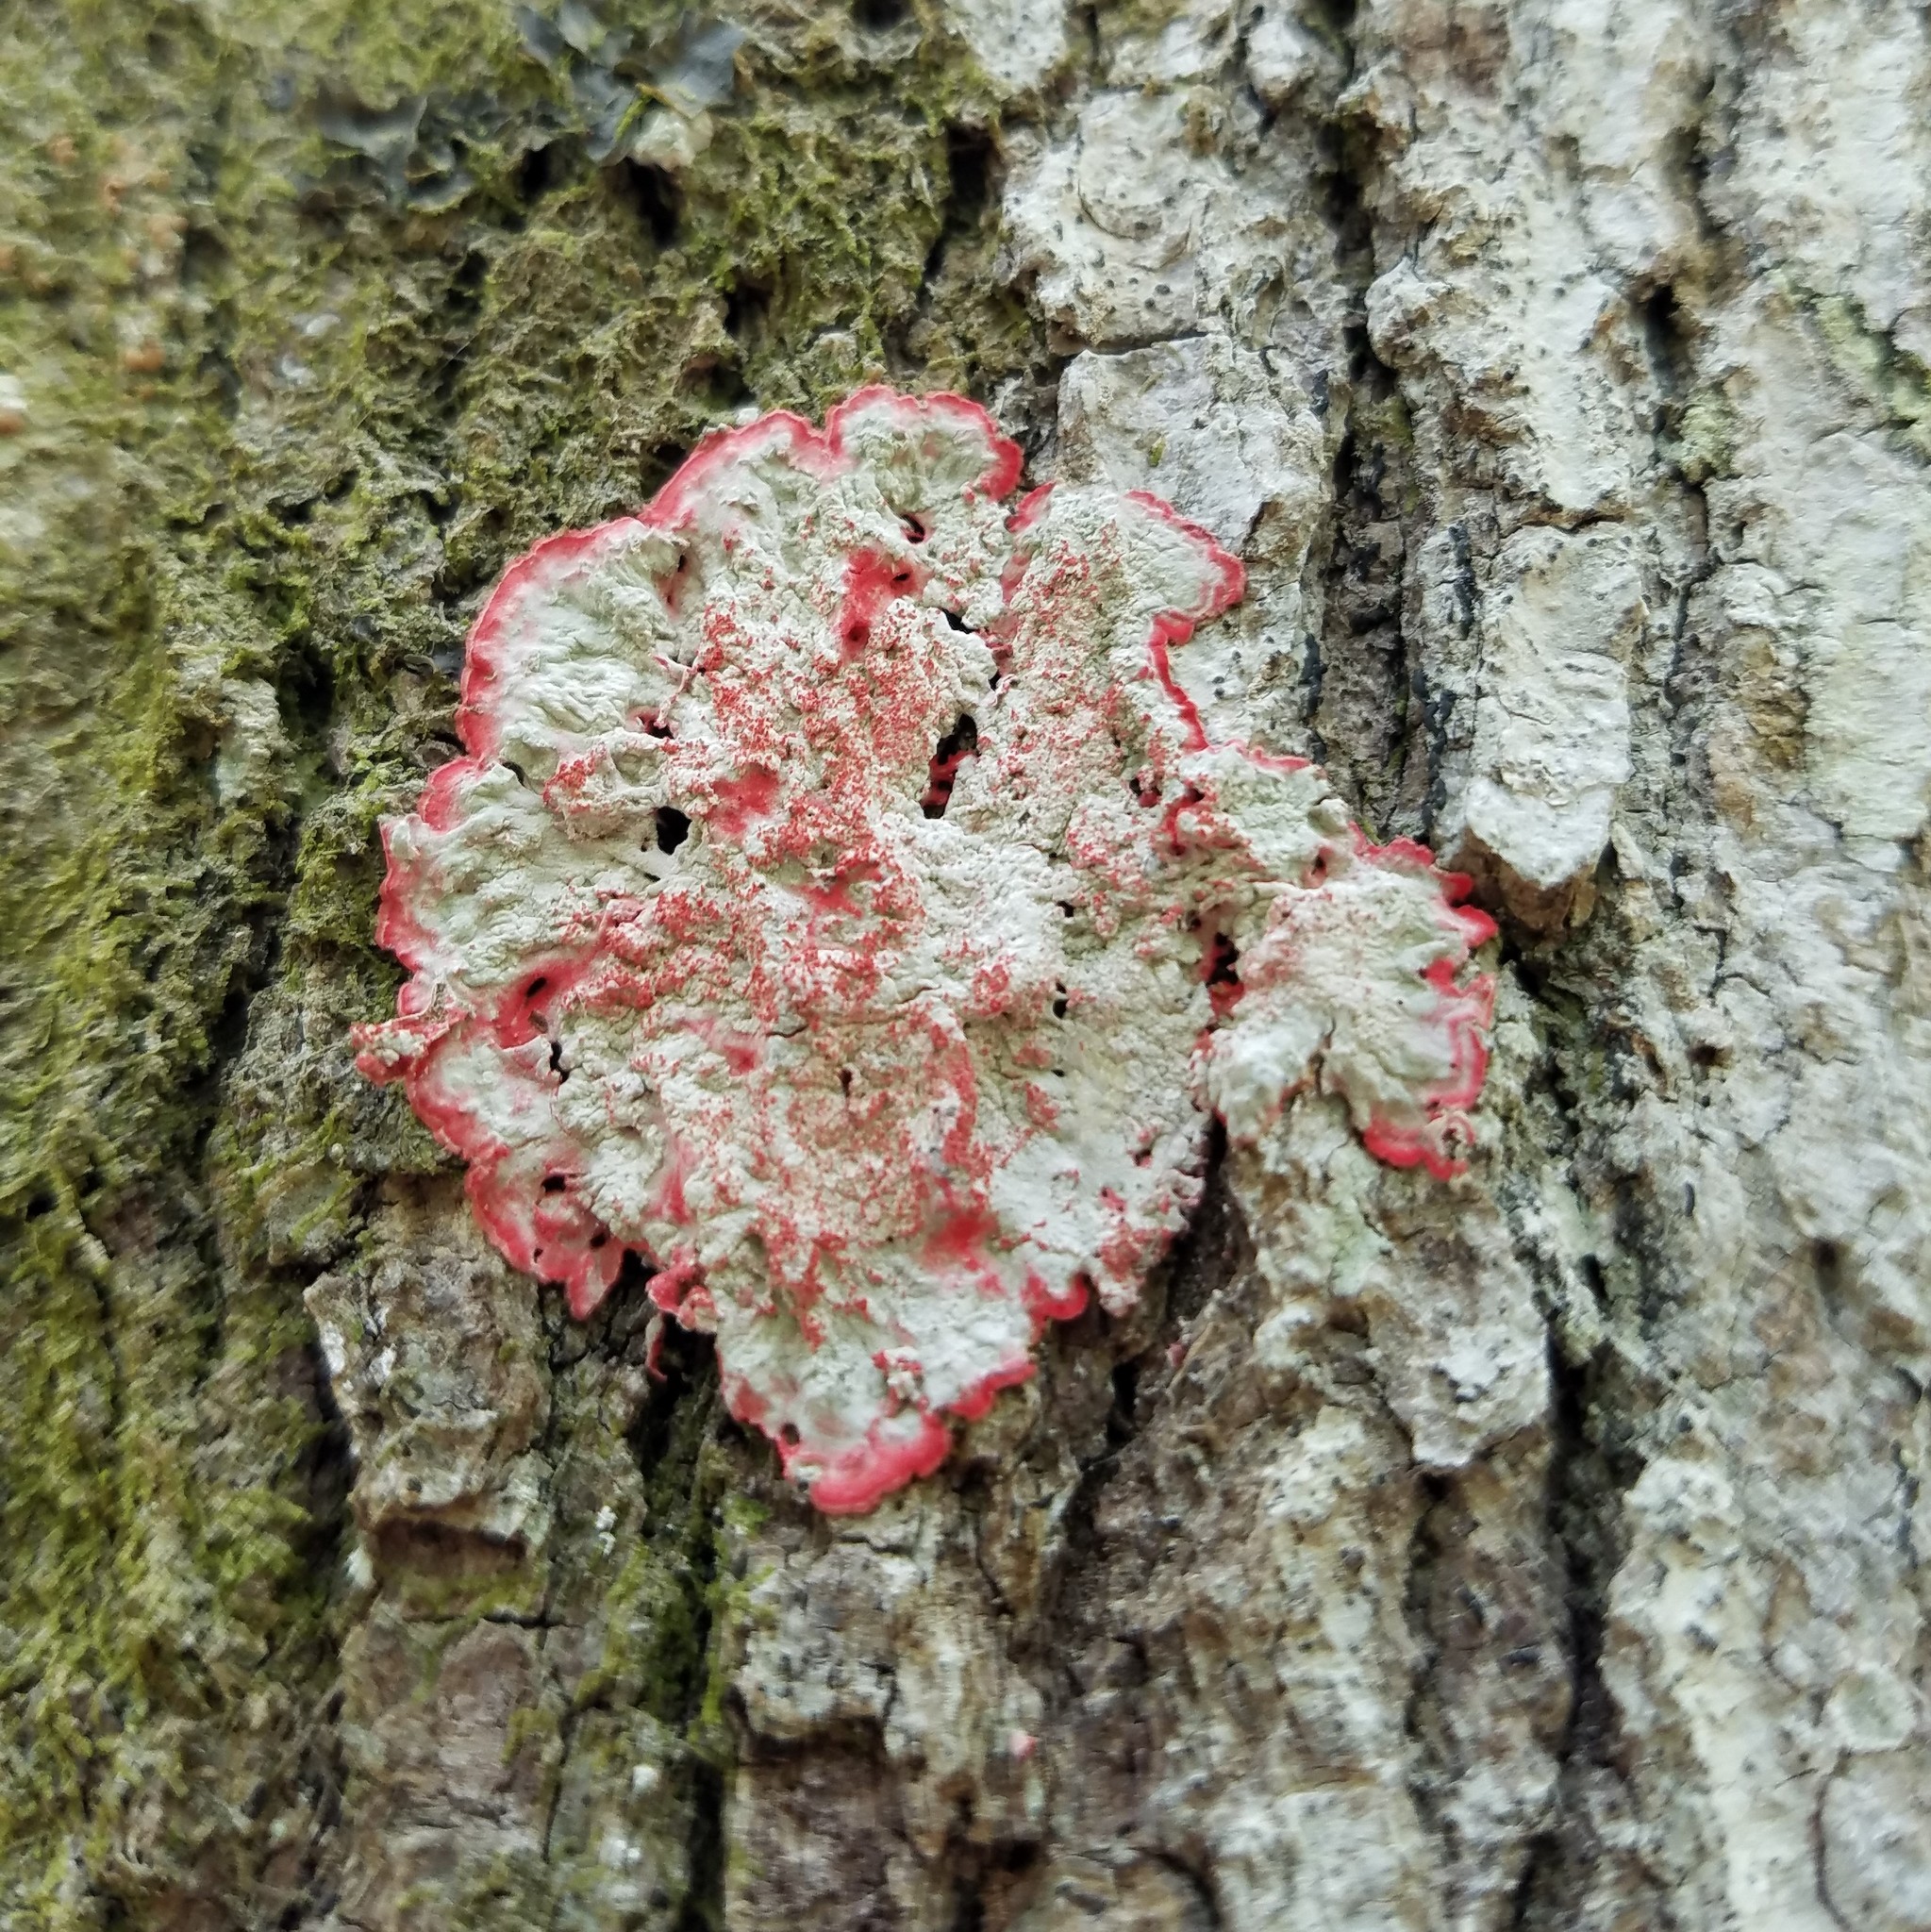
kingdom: Fungi
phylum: Ascomycota
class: Arthoniomycetes
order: Arthoniales
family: Arthoniaceae
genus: Herpothallon
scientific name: Herpothallon rubrocinctum
